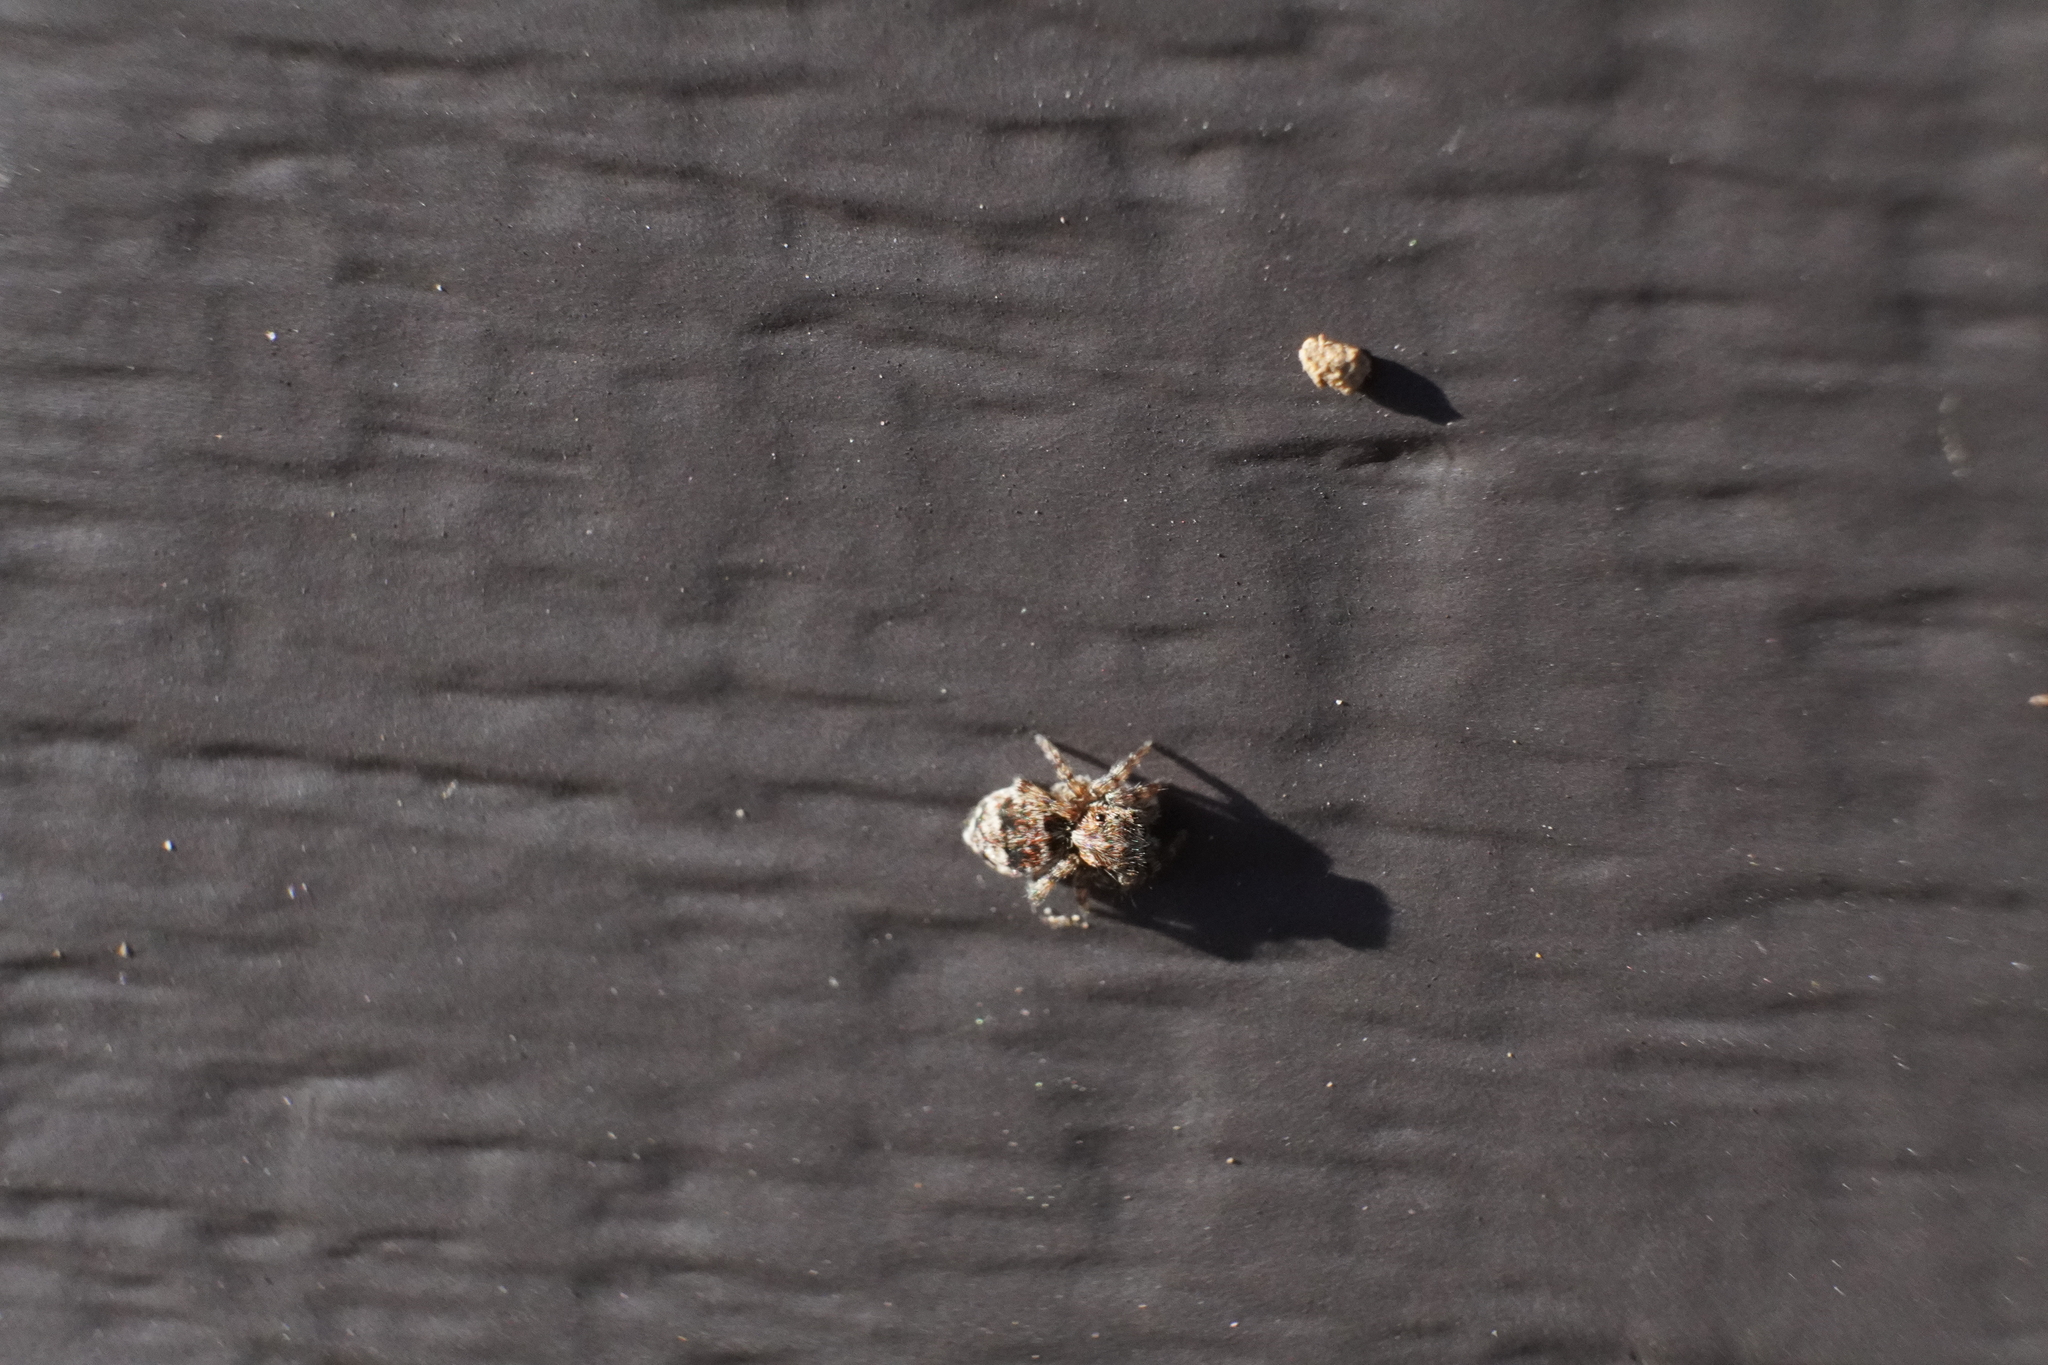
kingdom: Animalia
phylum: Arthropoda
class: Arachnida
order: Araneae
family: Salticidae
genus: Attulus
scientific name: Attulus fasciger
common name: Asiatic wall jumping spider
